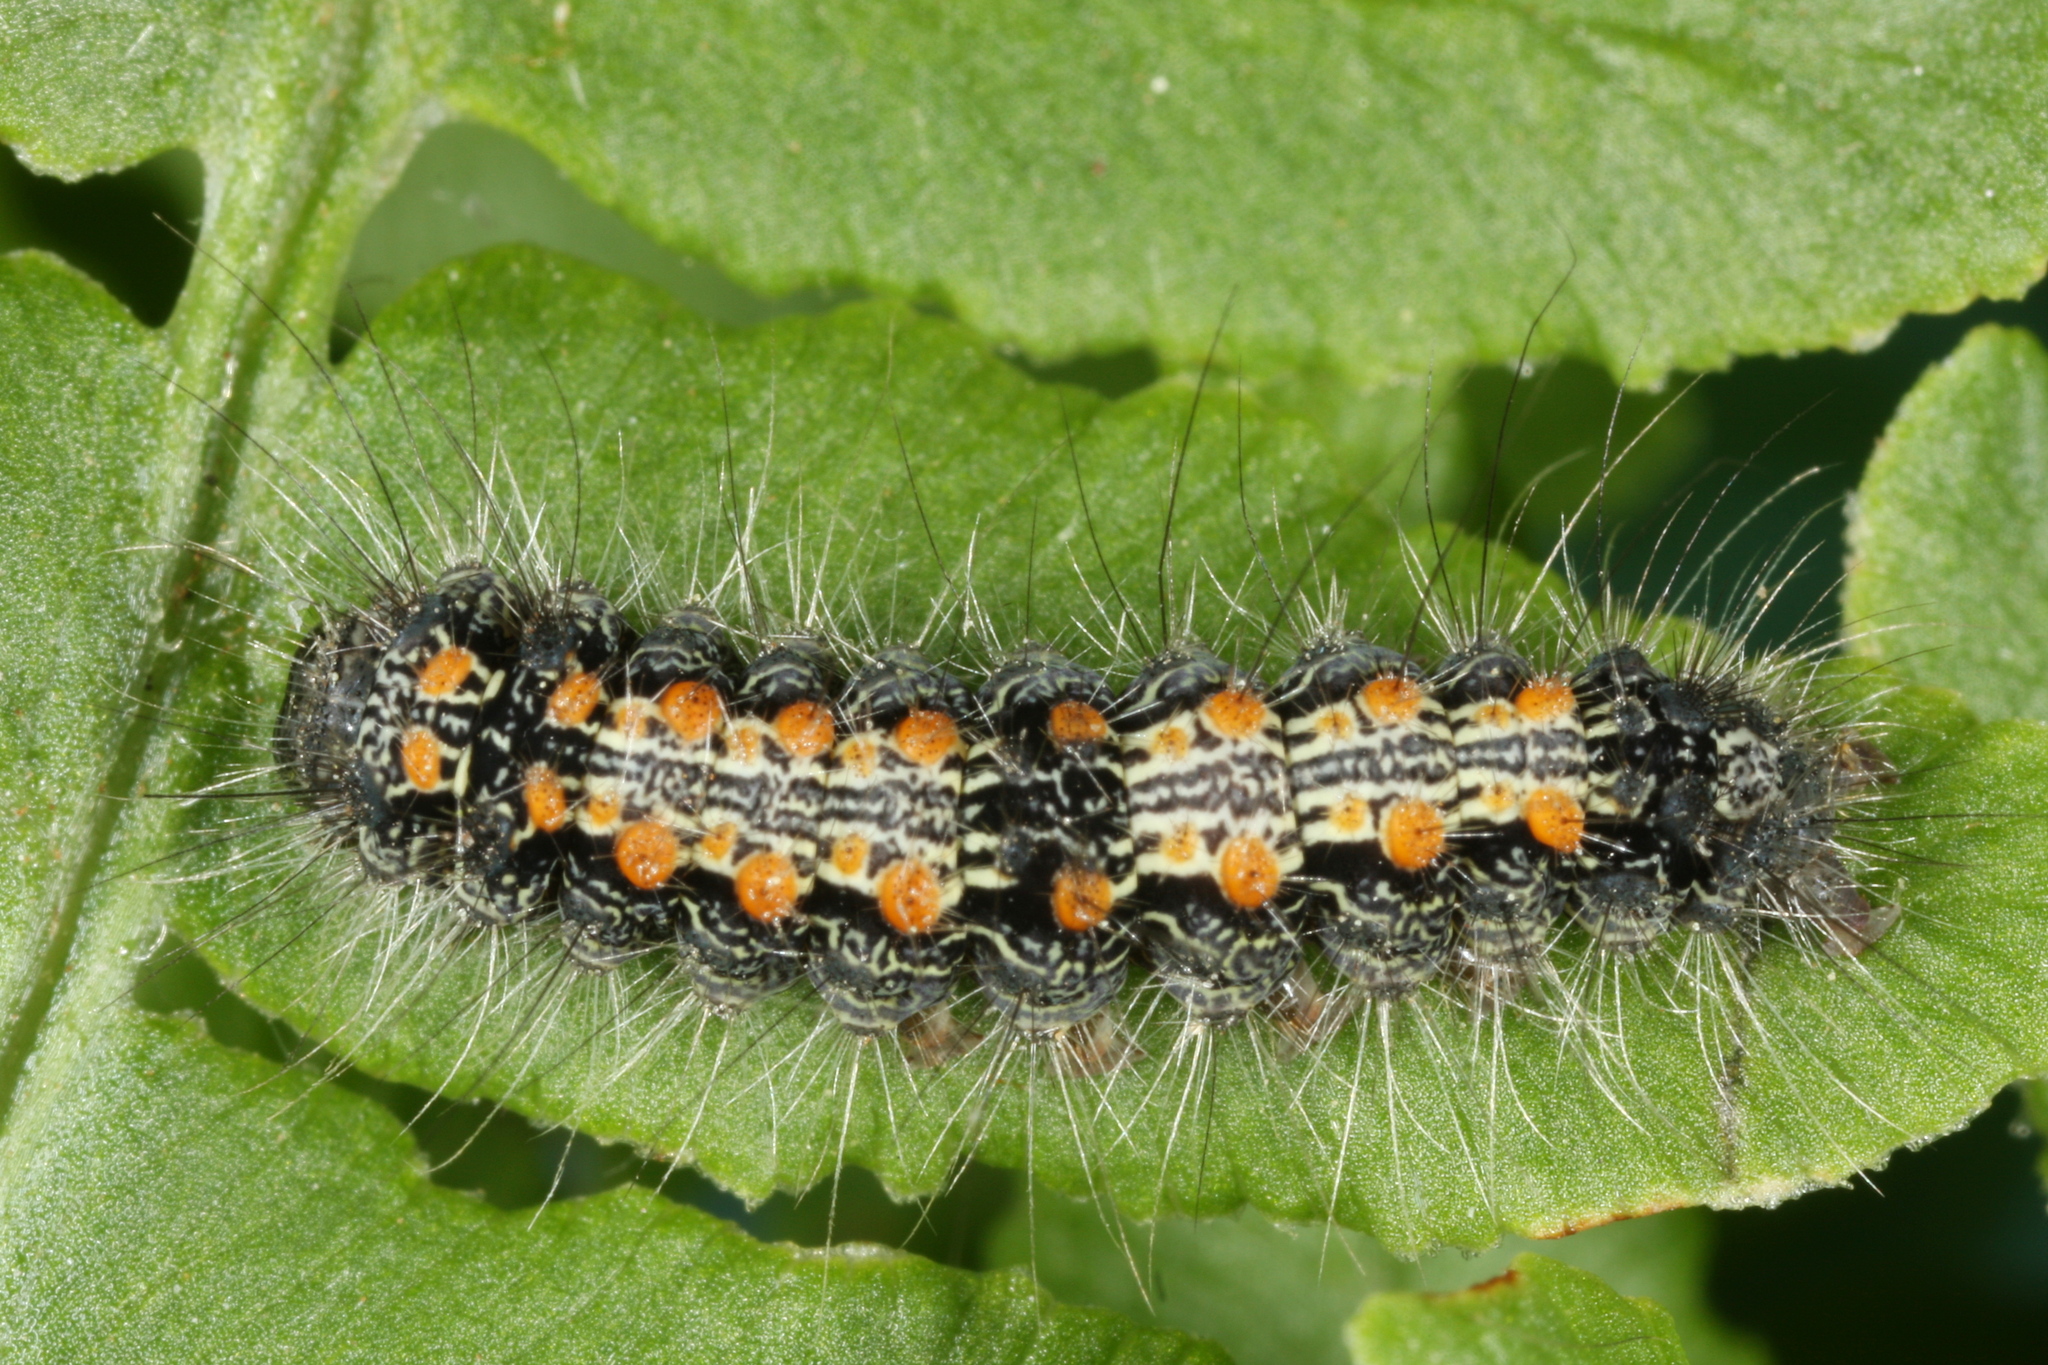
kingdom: Animalia
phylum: Arthropoda
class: Insecta
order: Lepidoptera
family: Erebidae
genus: Lithosia
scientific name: Lithosia quadra
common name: Four-spotted footman
